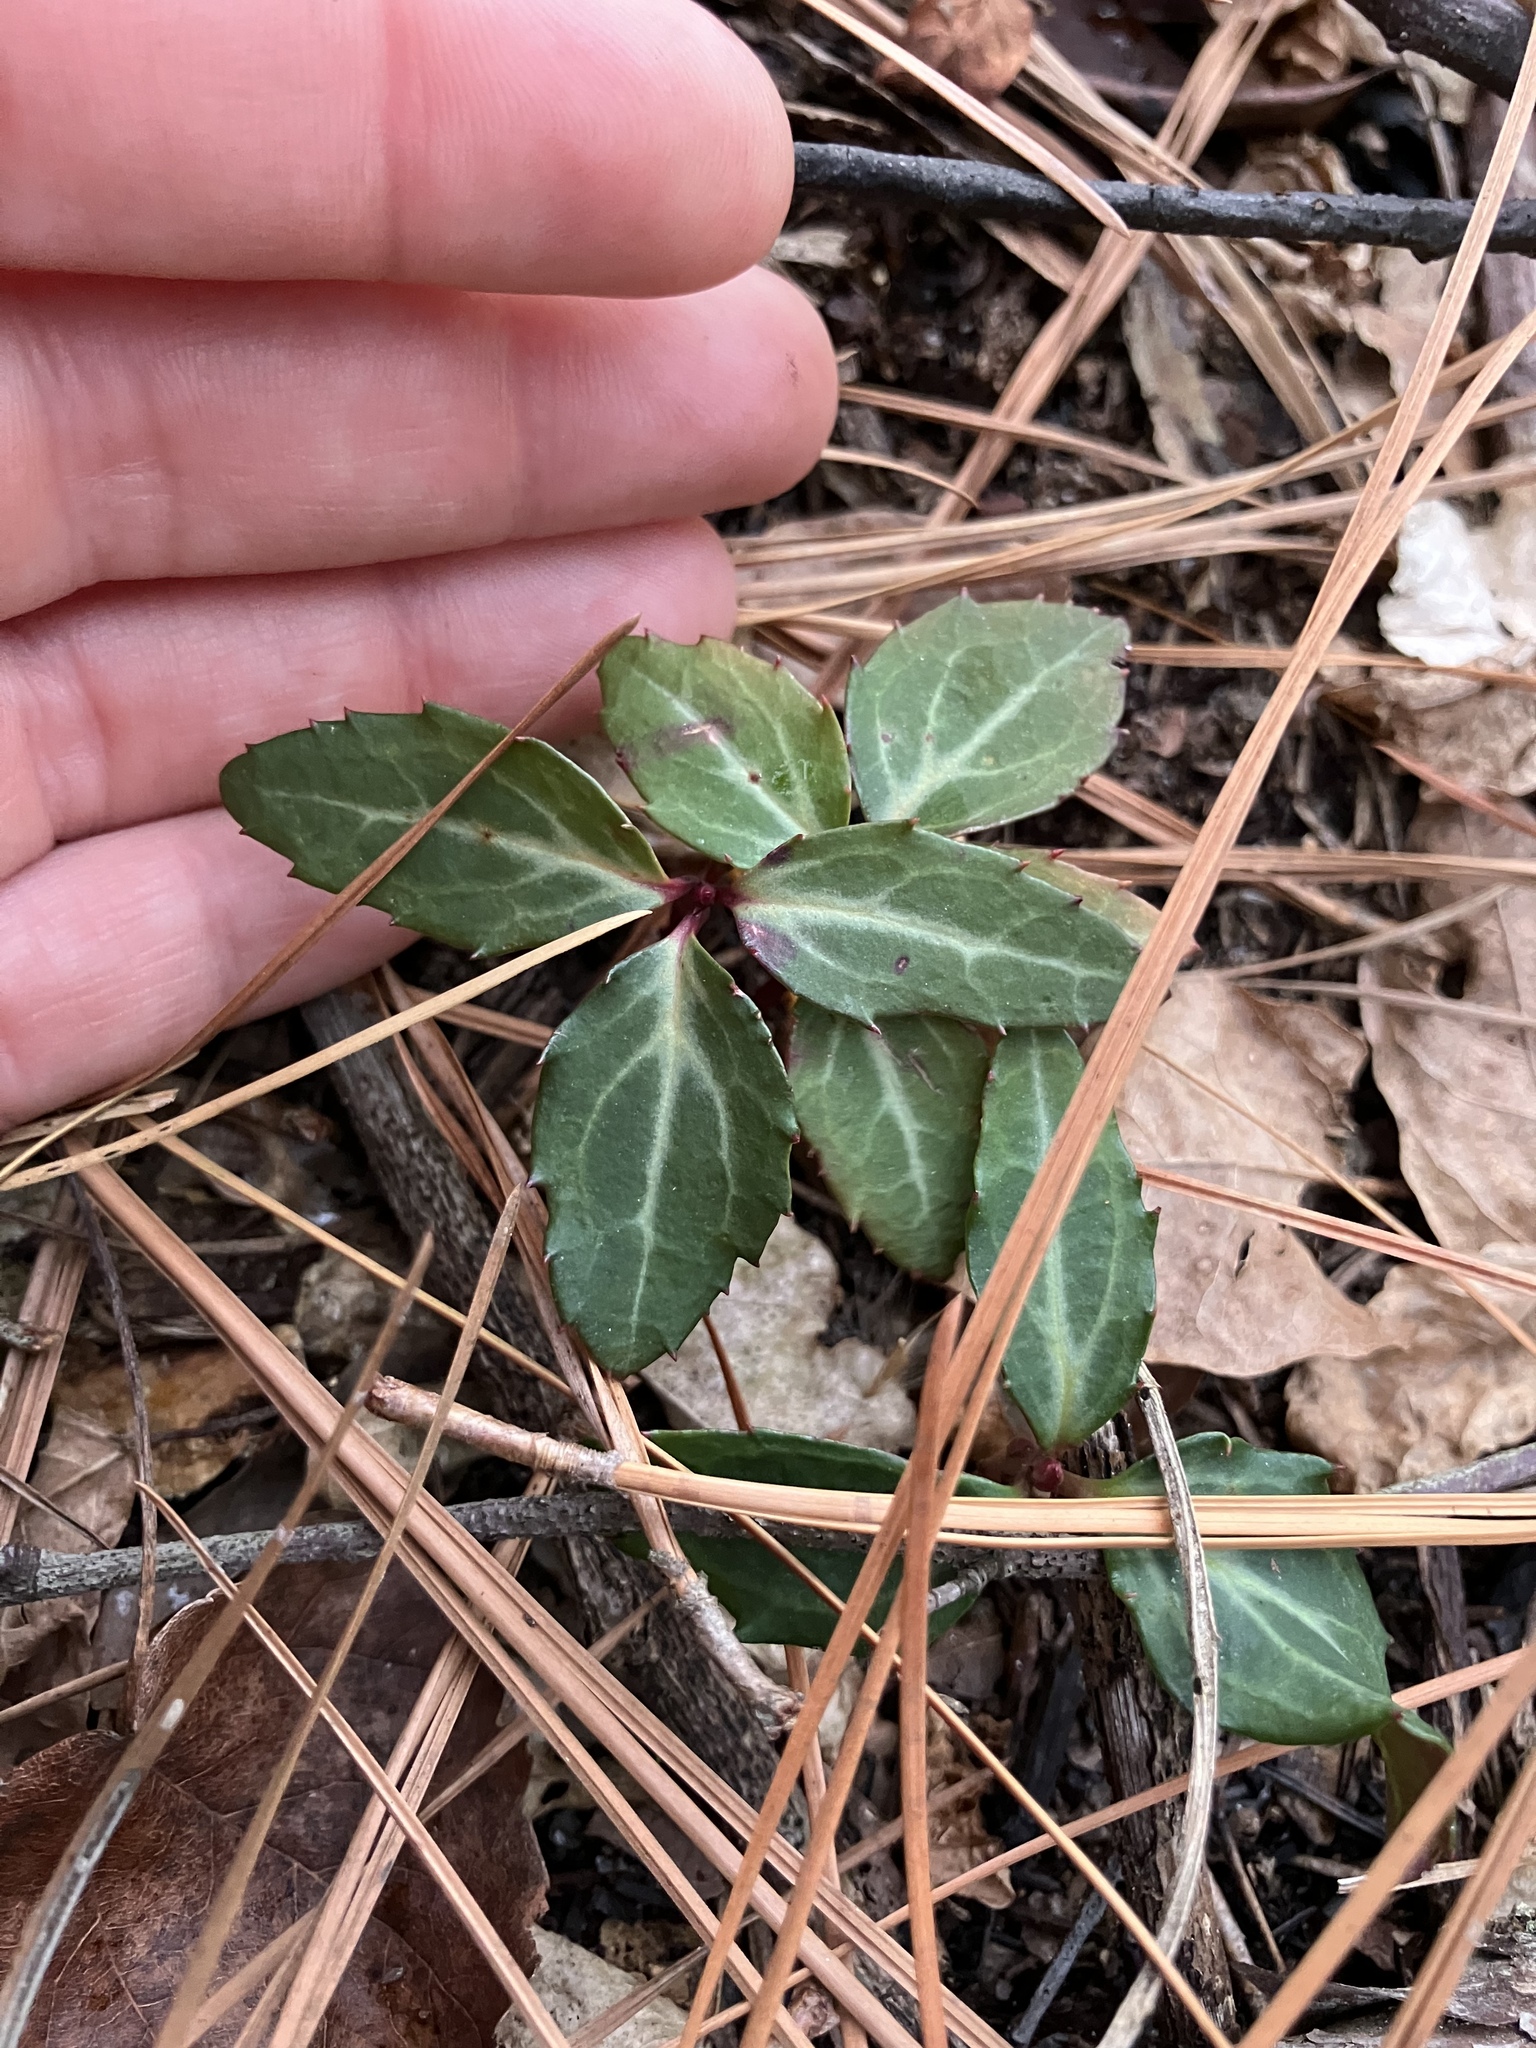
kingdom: Plantae
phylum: Tracheophyta
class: Magnoliopsida
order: Ericales
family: Ericaceae
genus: Chimaphila
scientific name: Chimaphila maculata
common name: Spotted pipsissewa
